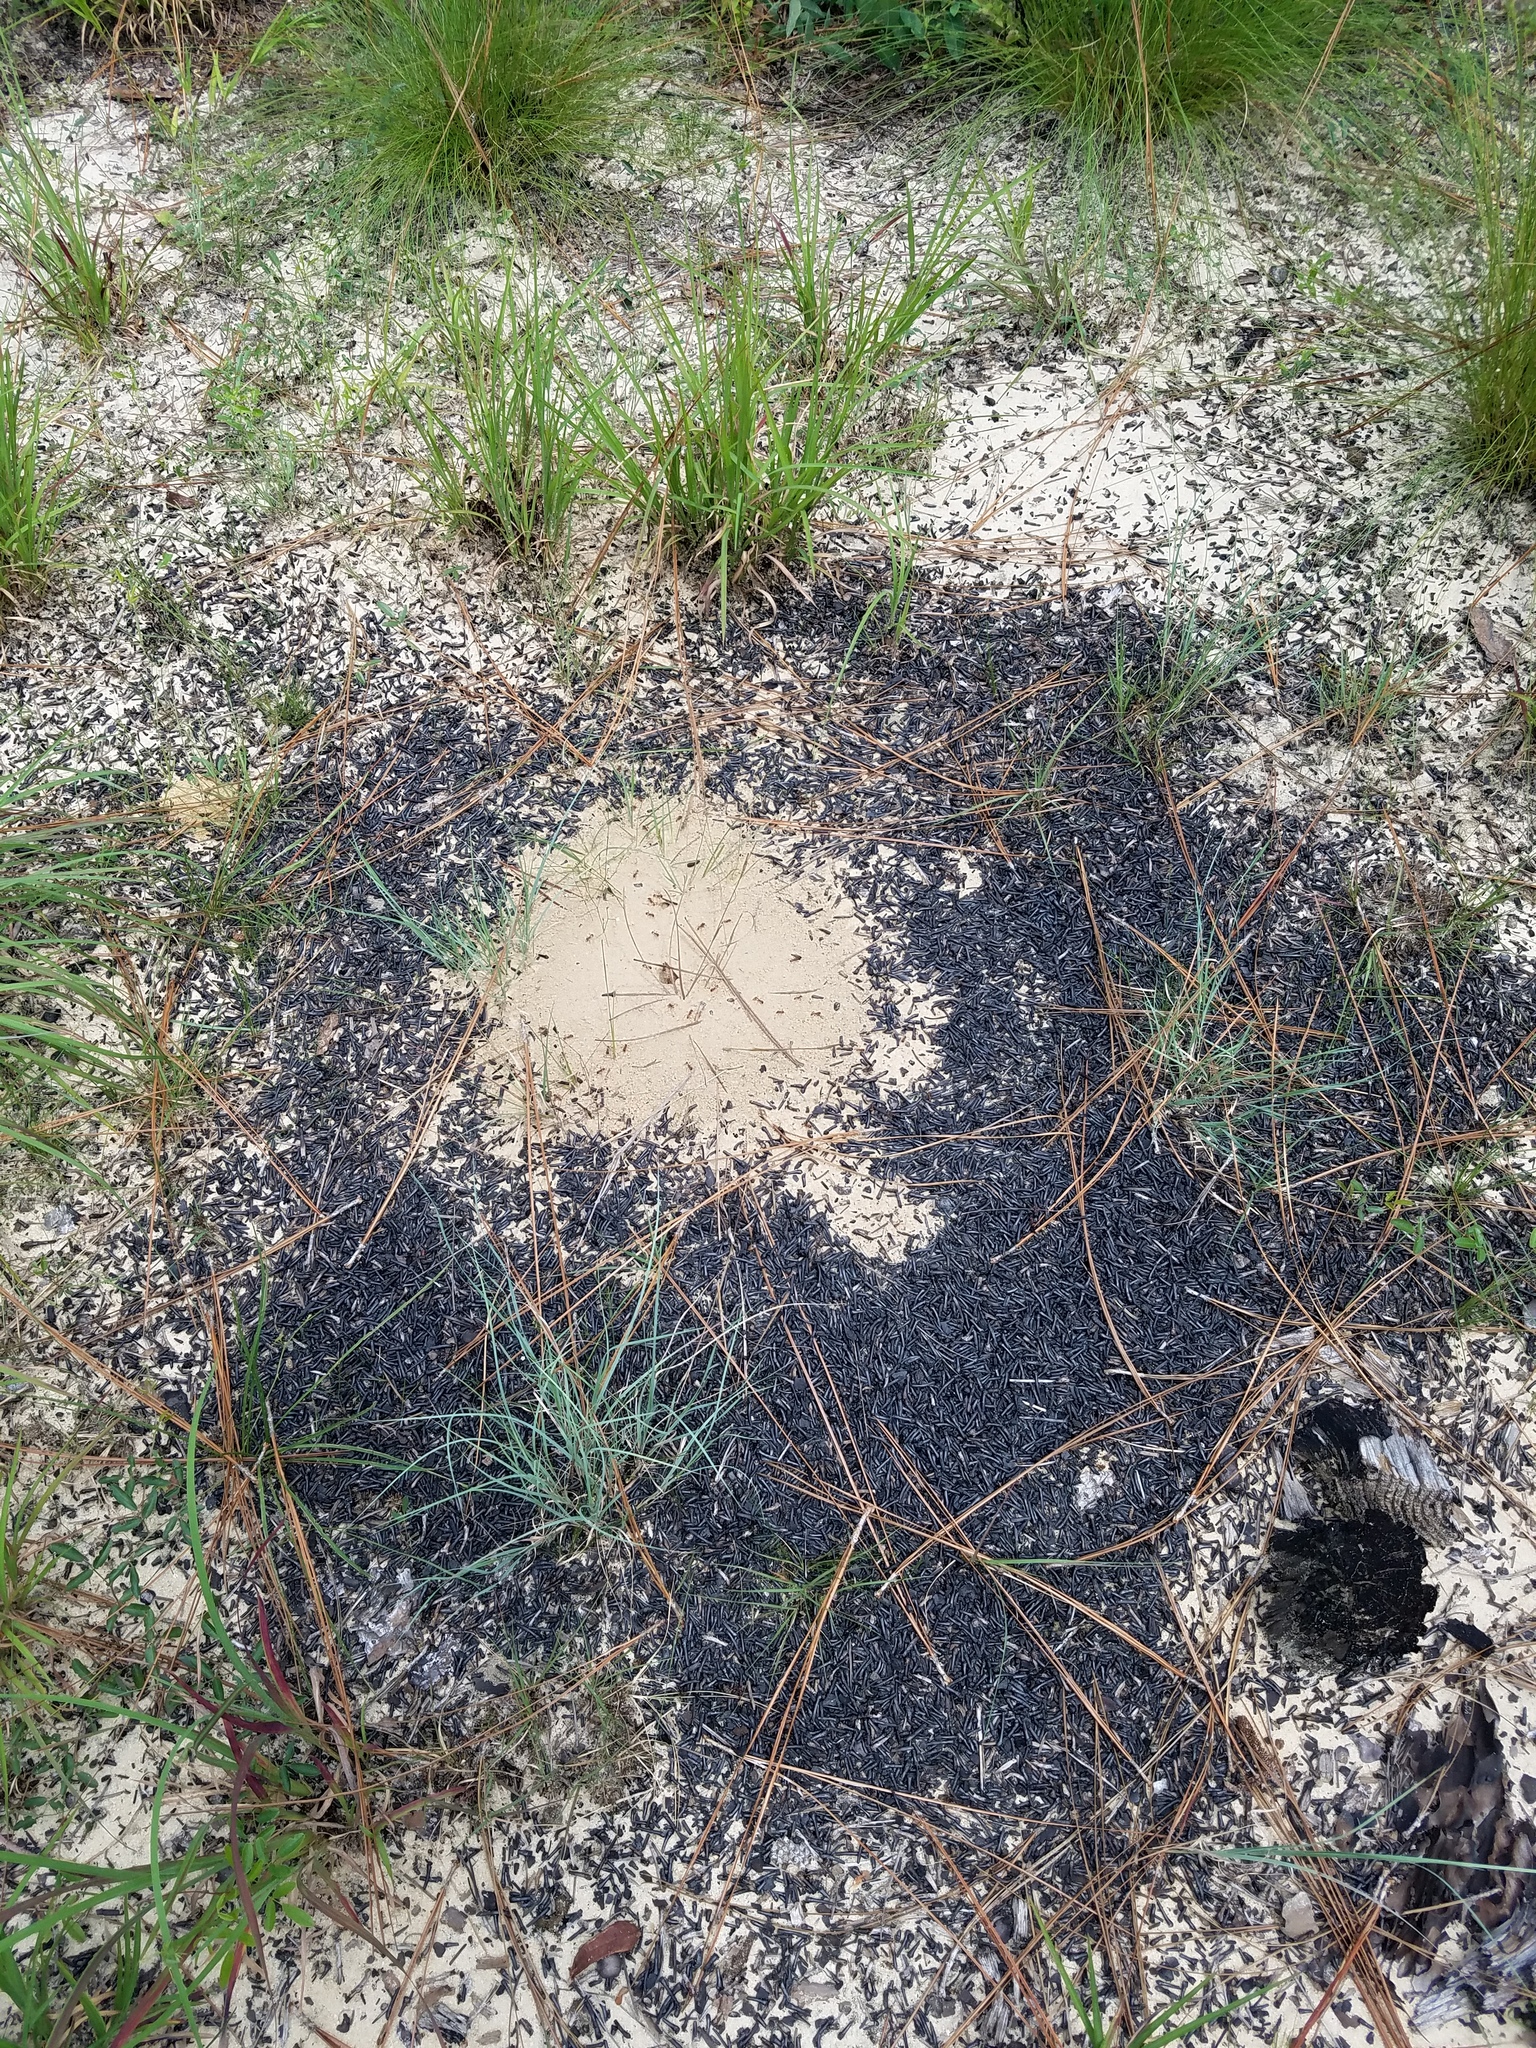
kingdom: Animalia
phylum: Arthropoda
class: Insecta
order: Hymenoptera
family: Formicidae
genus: Pogonomyrmex
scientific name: Pogonomyrmex badius
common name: Florida harvester ant
